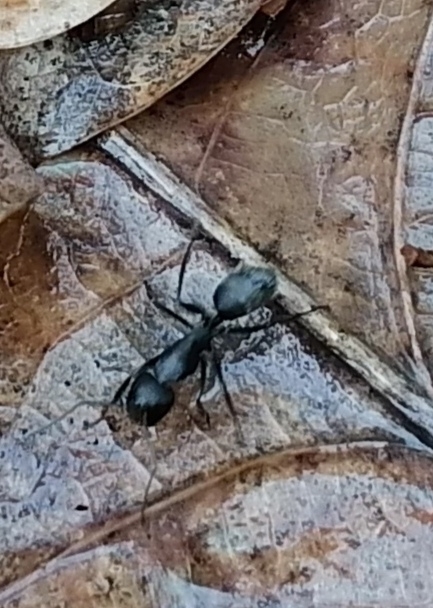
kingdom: Animalia
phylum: Arthropoda
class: Insecta
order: Hymenoptera
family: Formicidae
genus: Camponotus
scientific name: Camponotus vagus
